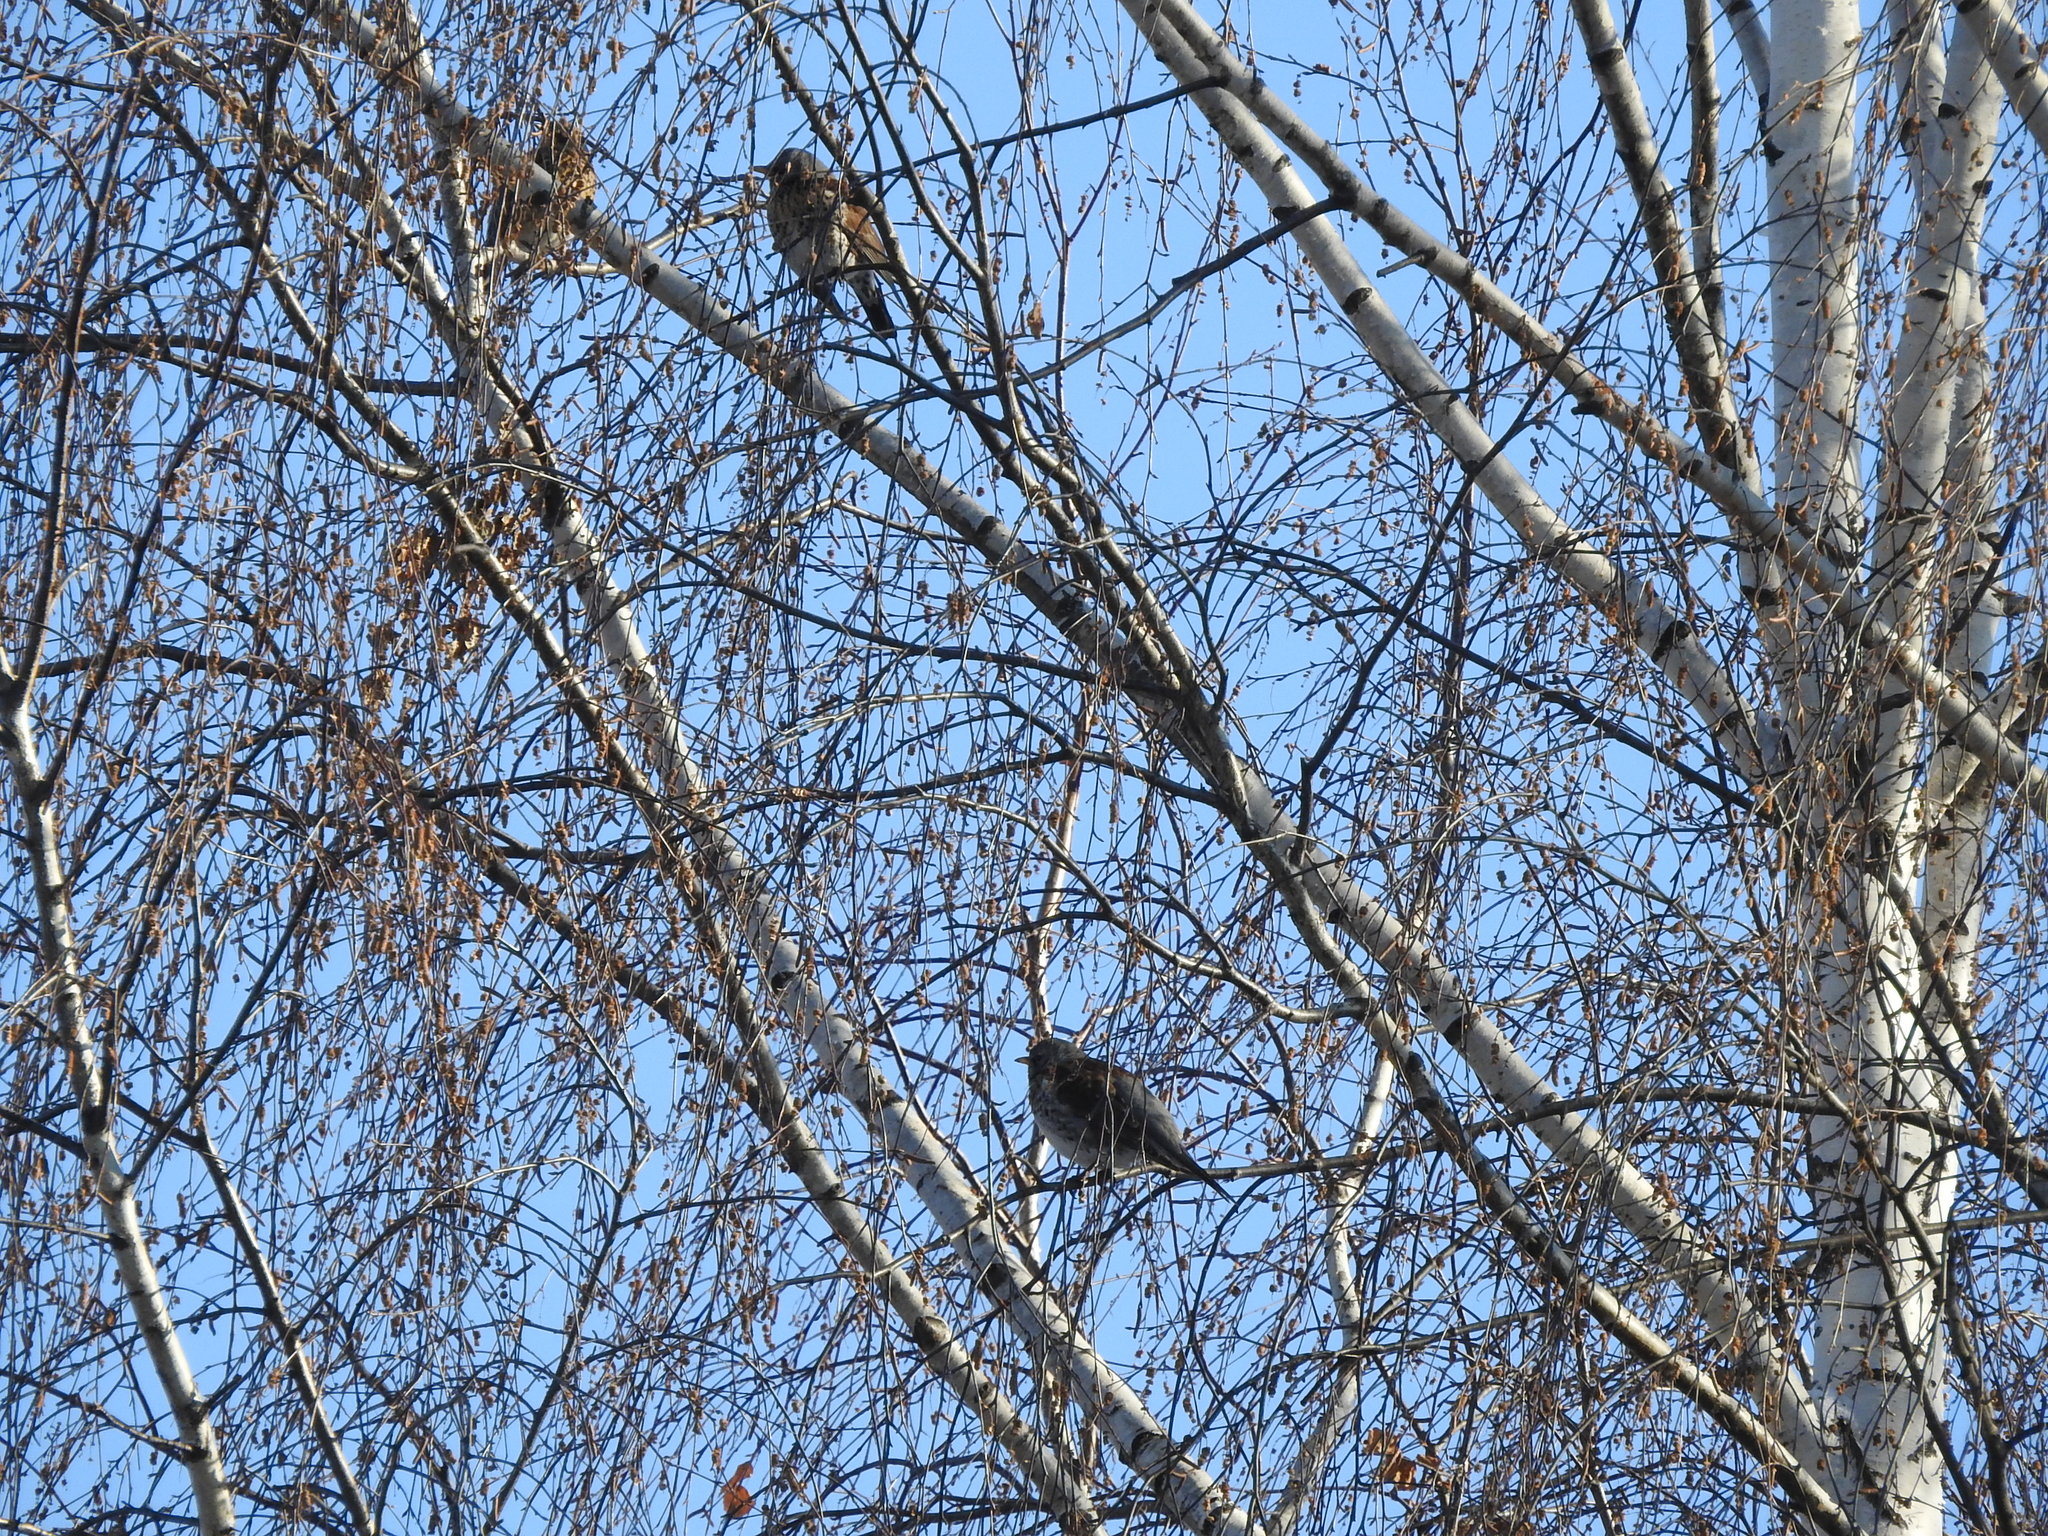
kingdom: Animalia
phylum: Chordata
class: Aves
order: Passeriformes
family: Turdidae
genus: Turdus
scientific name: Turdus pilaris
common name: Fieldfare
